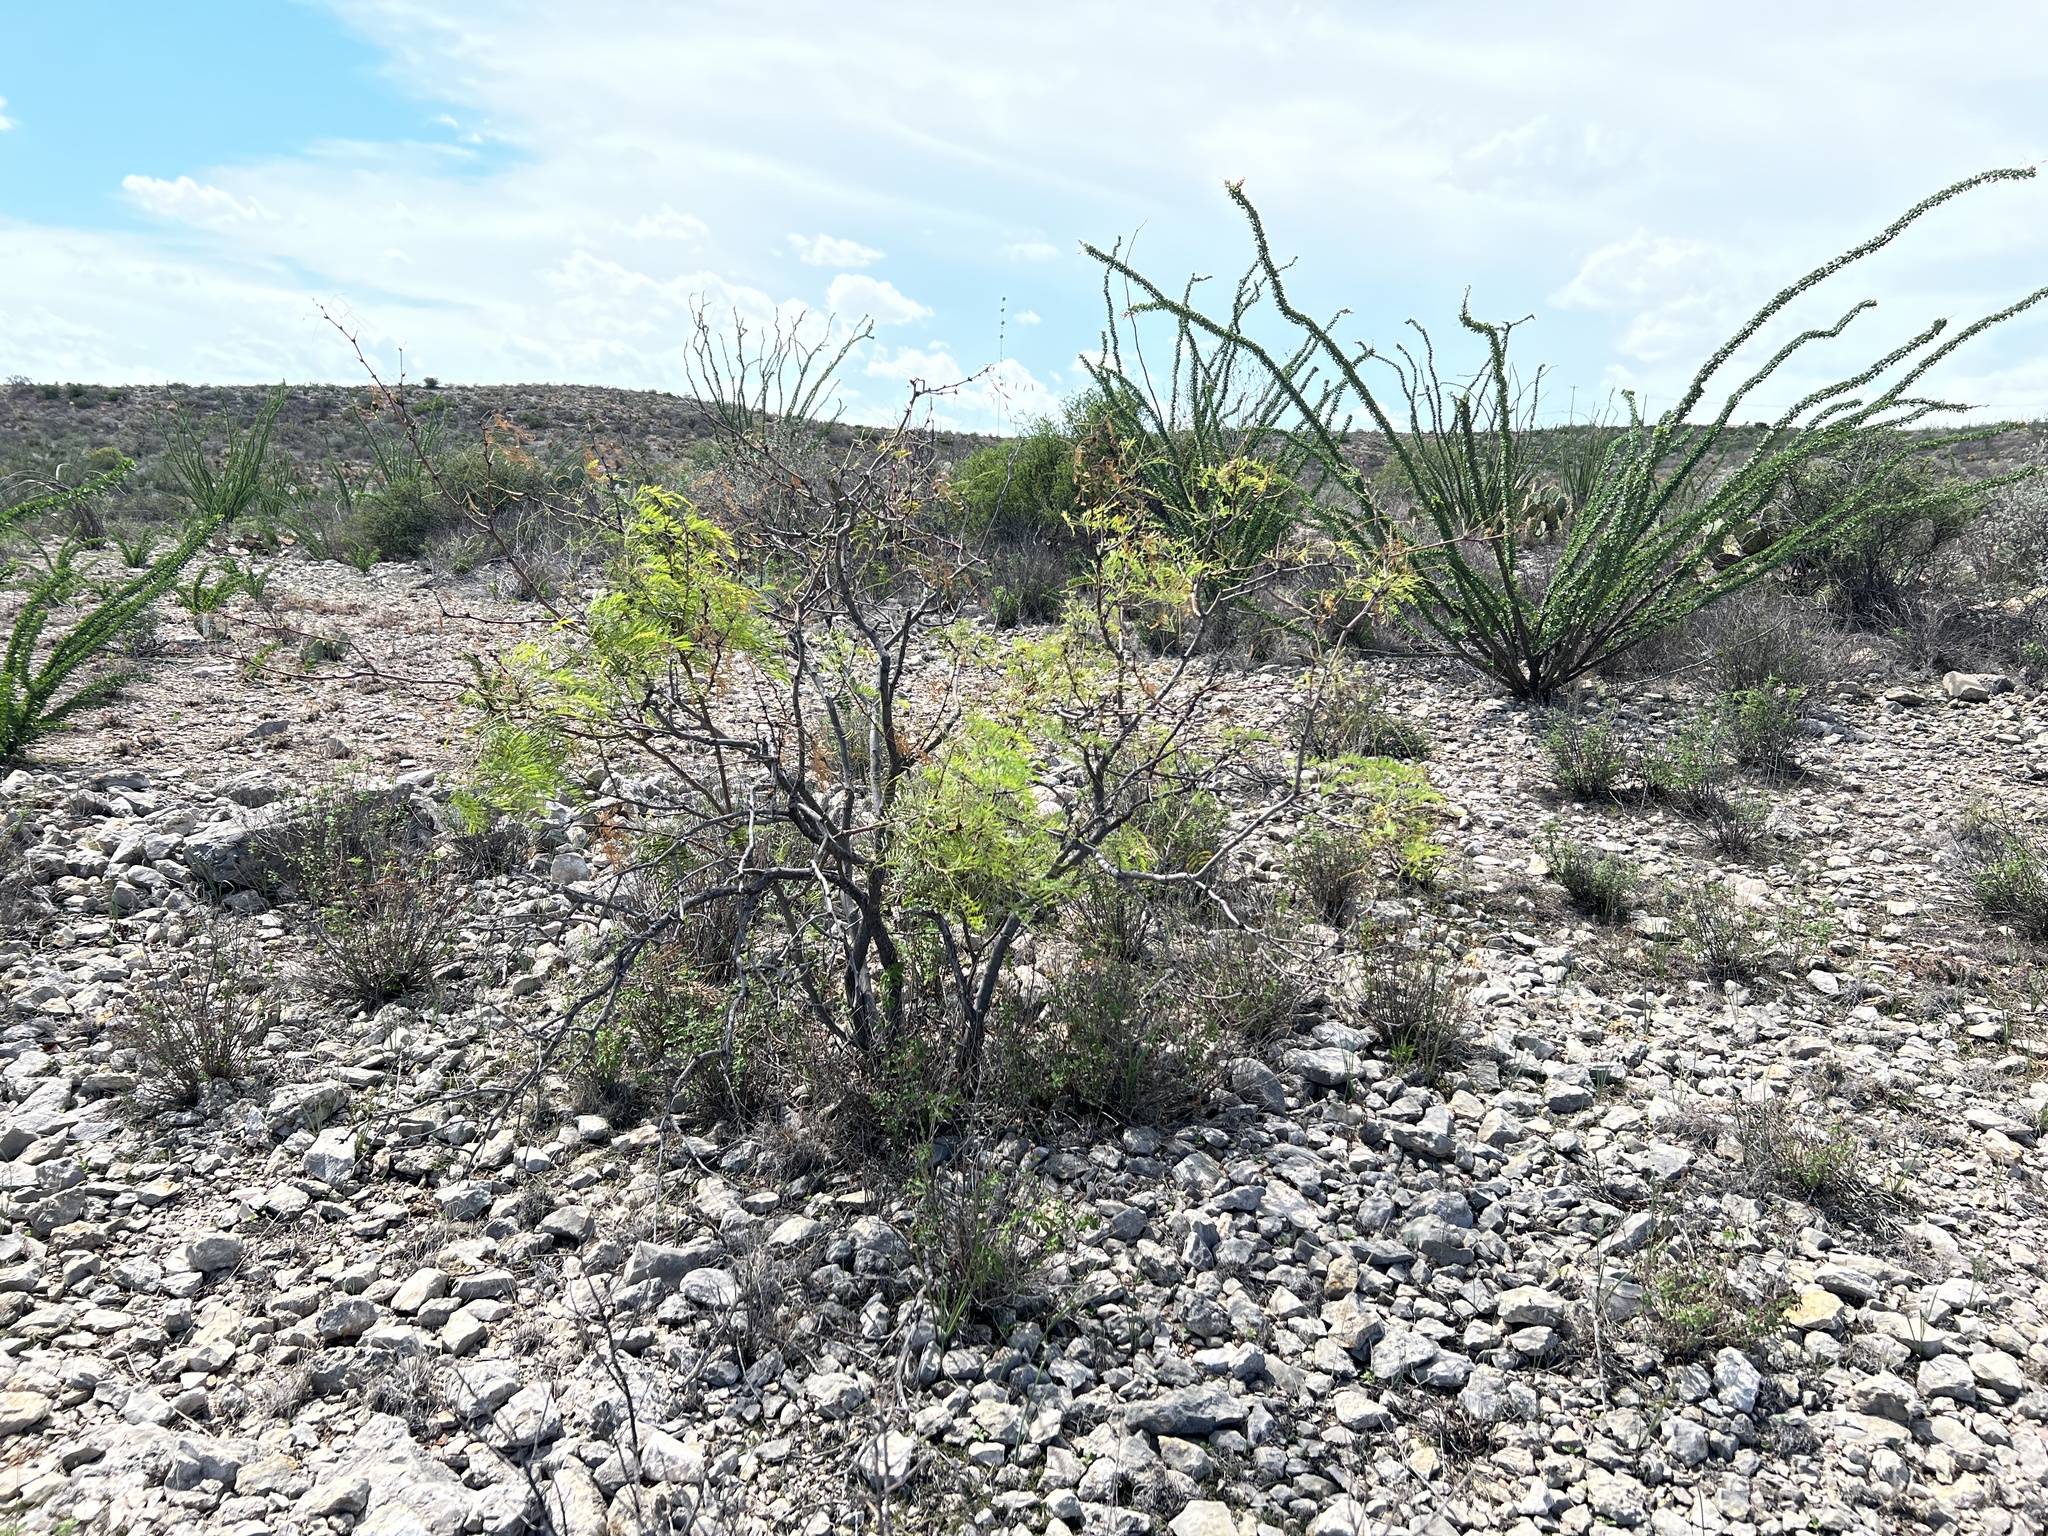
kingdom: Plantae
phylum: Tracheophyta
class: Magnoliopsida
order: Fabales
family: Fabaceae
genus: Prosopis
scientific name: Prosopis glandulosa
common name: Honey mesquite
